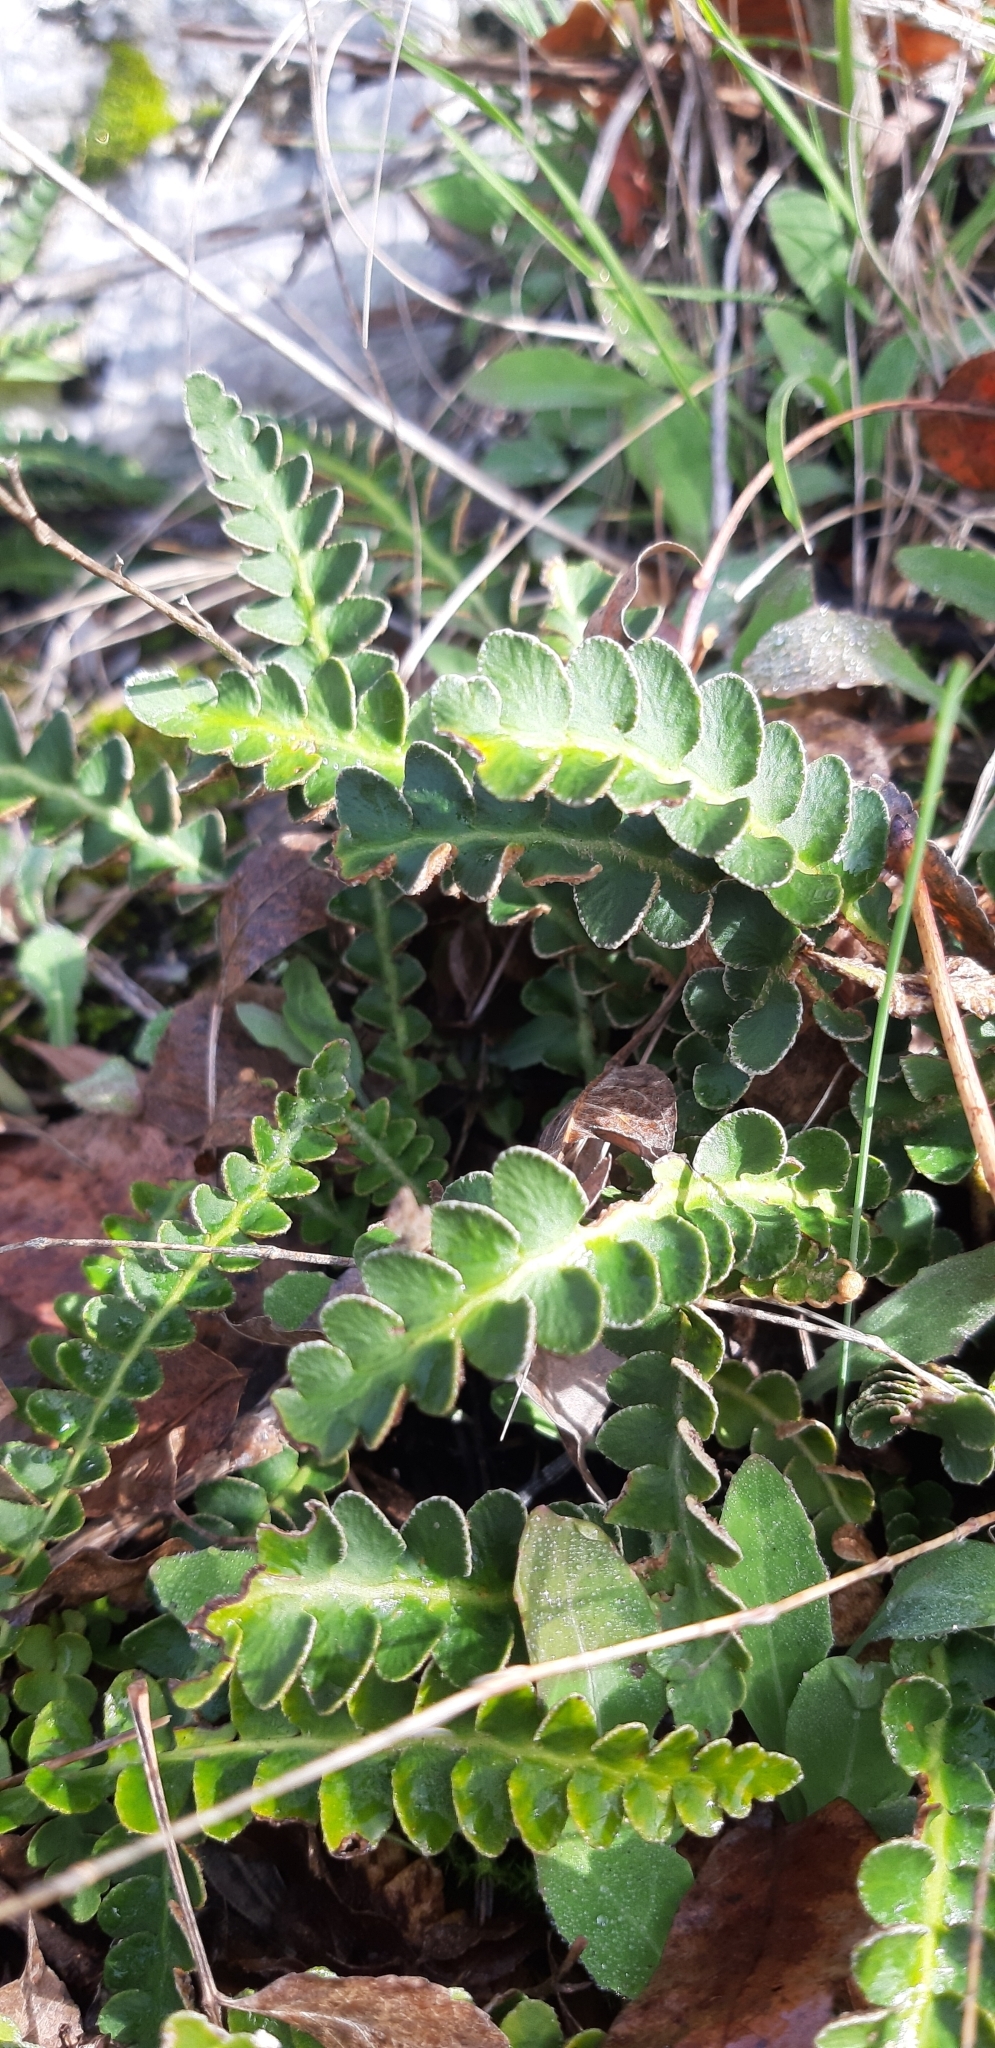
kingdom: Plantae
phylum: Tracheophyta
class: Polypodiopsida
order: Polypodiales
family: Aspleniaceae
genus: Asplenium
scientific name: Asplenium ceterach
